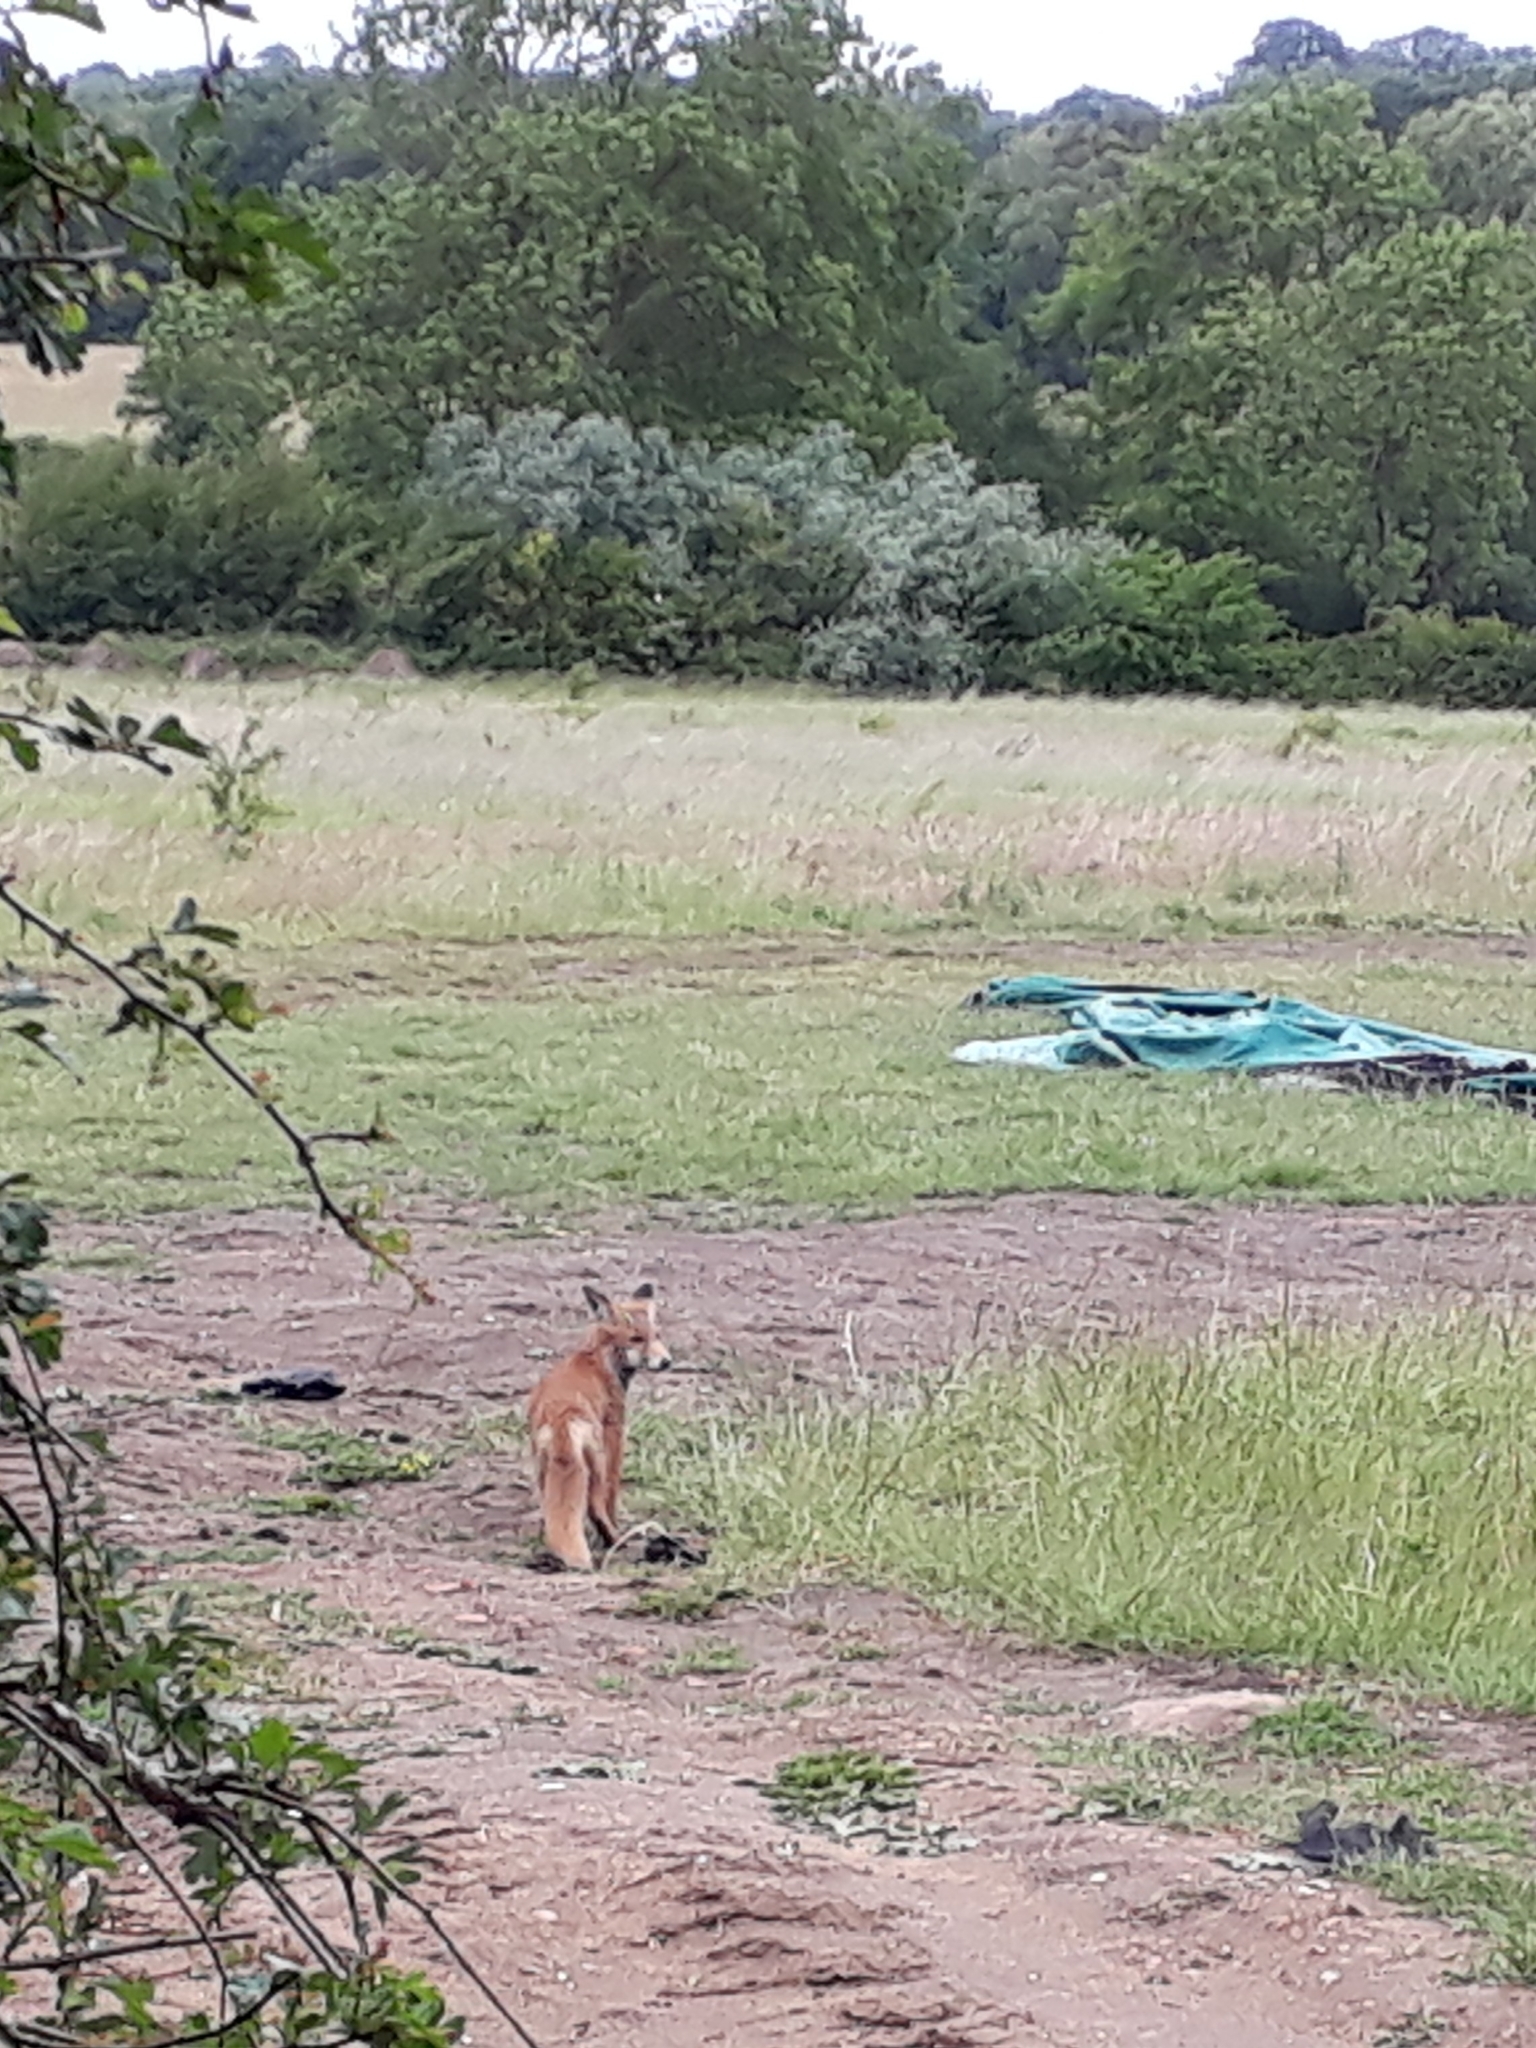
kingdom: Animalia
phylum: Chordata
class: Mammalia
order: Carnivora
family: Canidae
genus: Vulpes
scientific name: Vulpes vulpes
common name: Red fox
